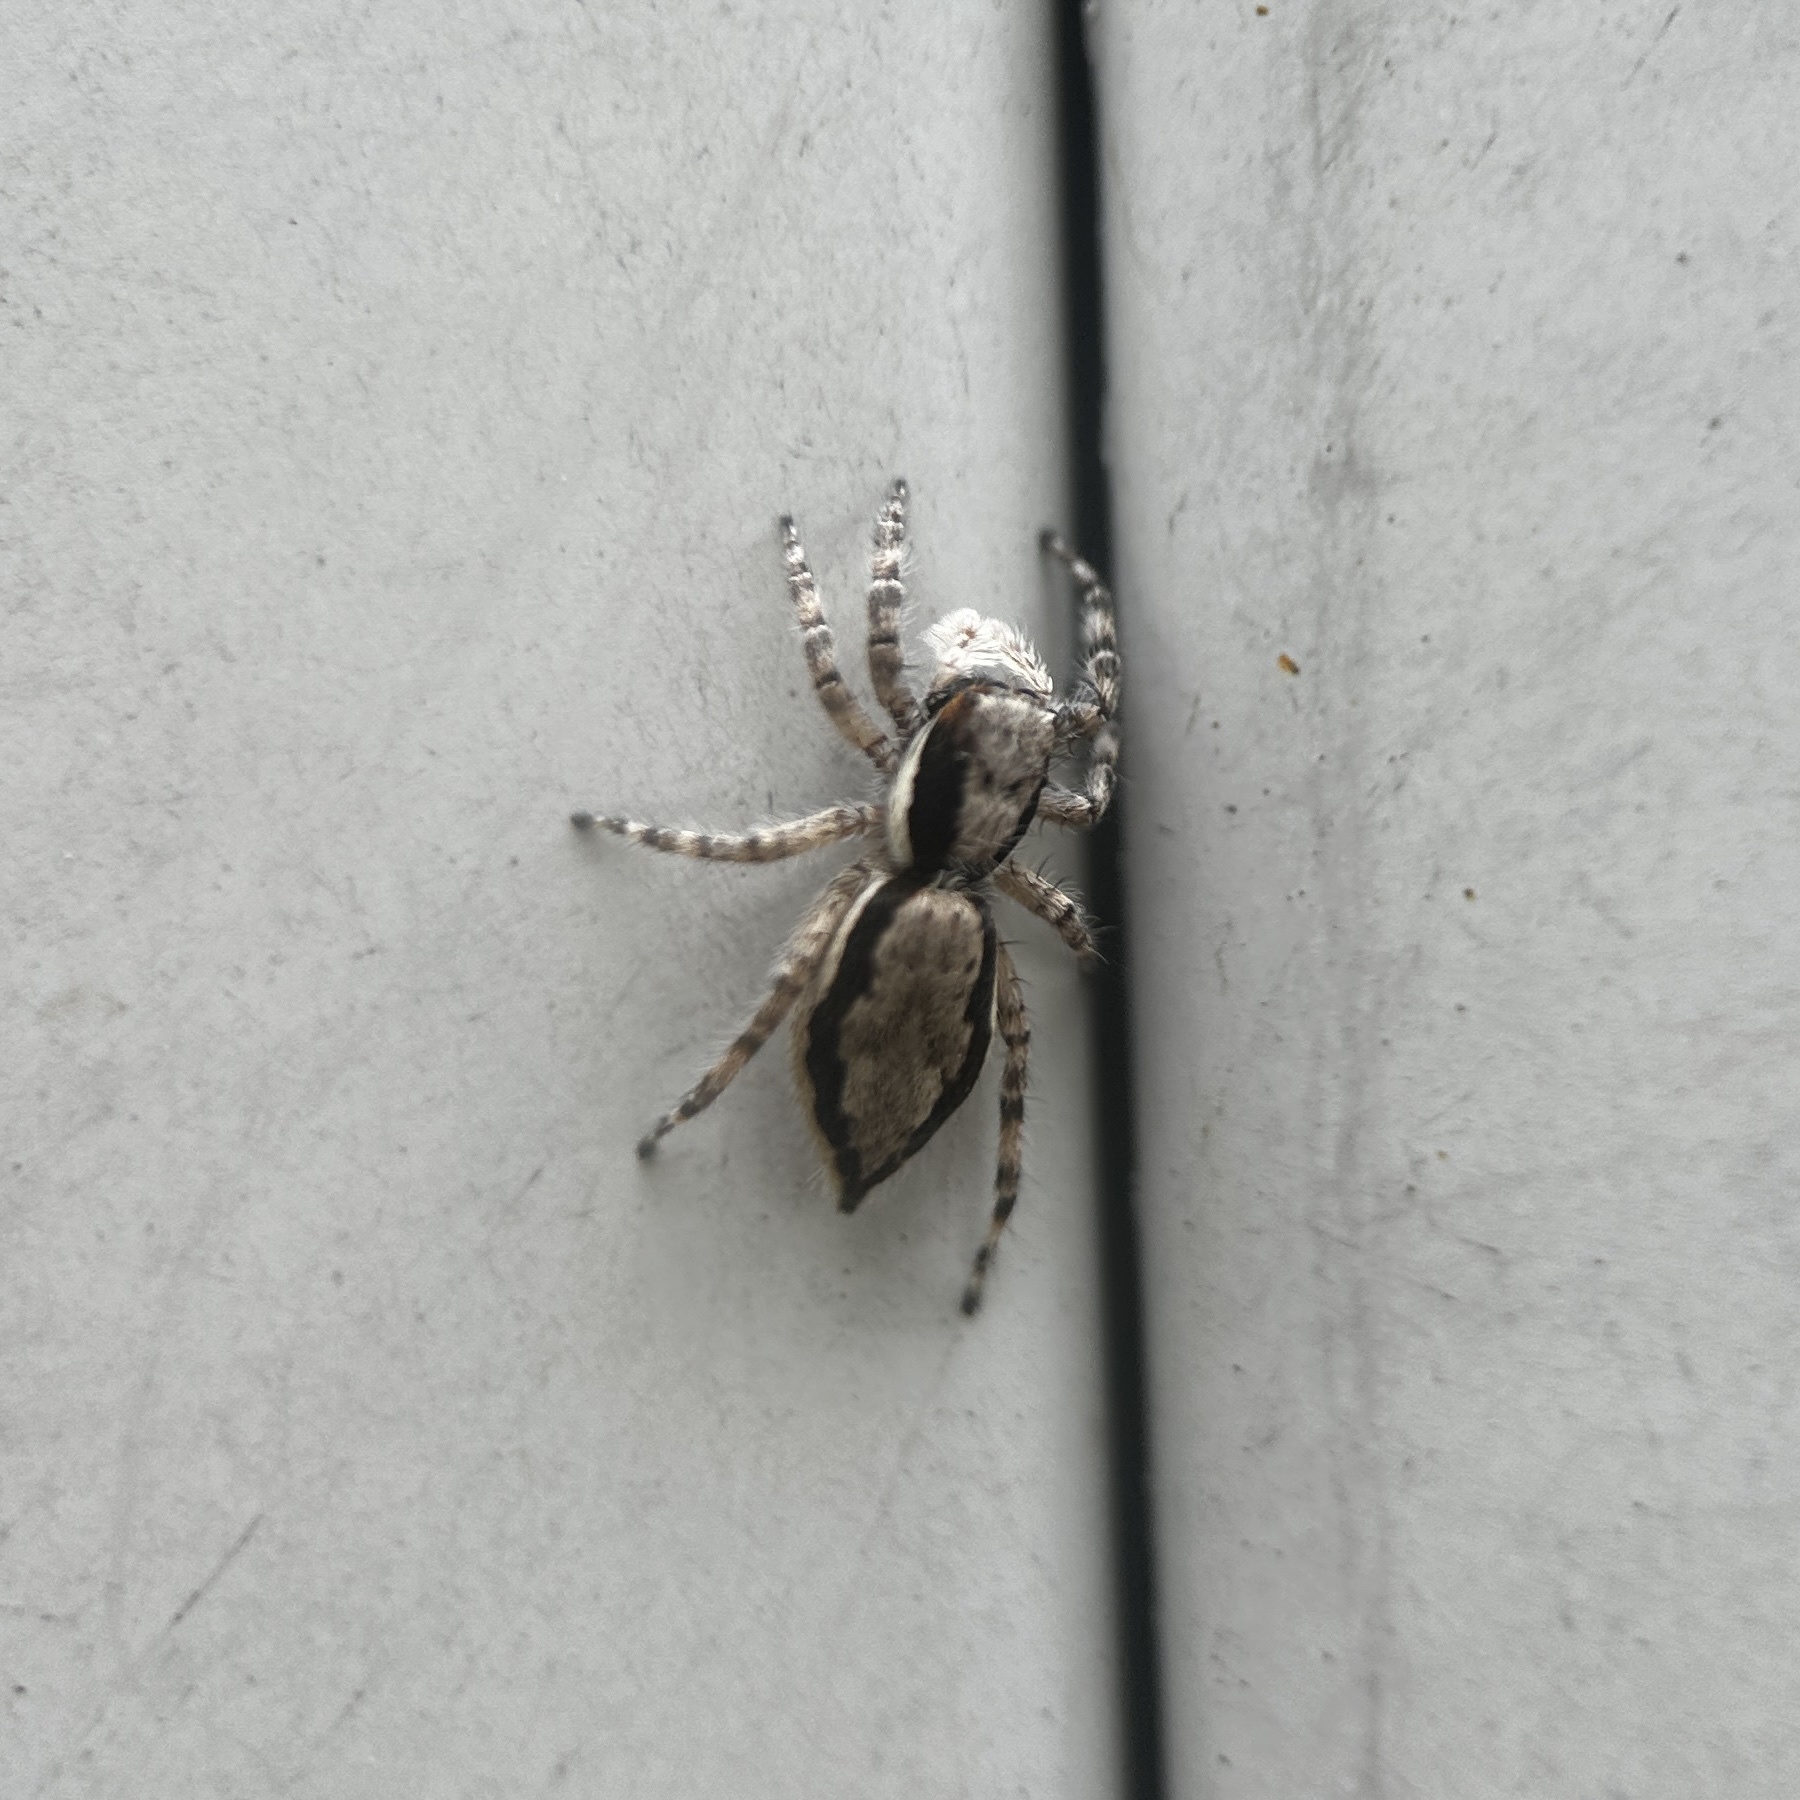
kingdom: Animalia
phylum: Arthropoda
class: Arachnida
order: Araneae
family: Salticidae
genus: Menemerus
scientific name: Menemerus bivittatus
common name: Gray wall jumper
